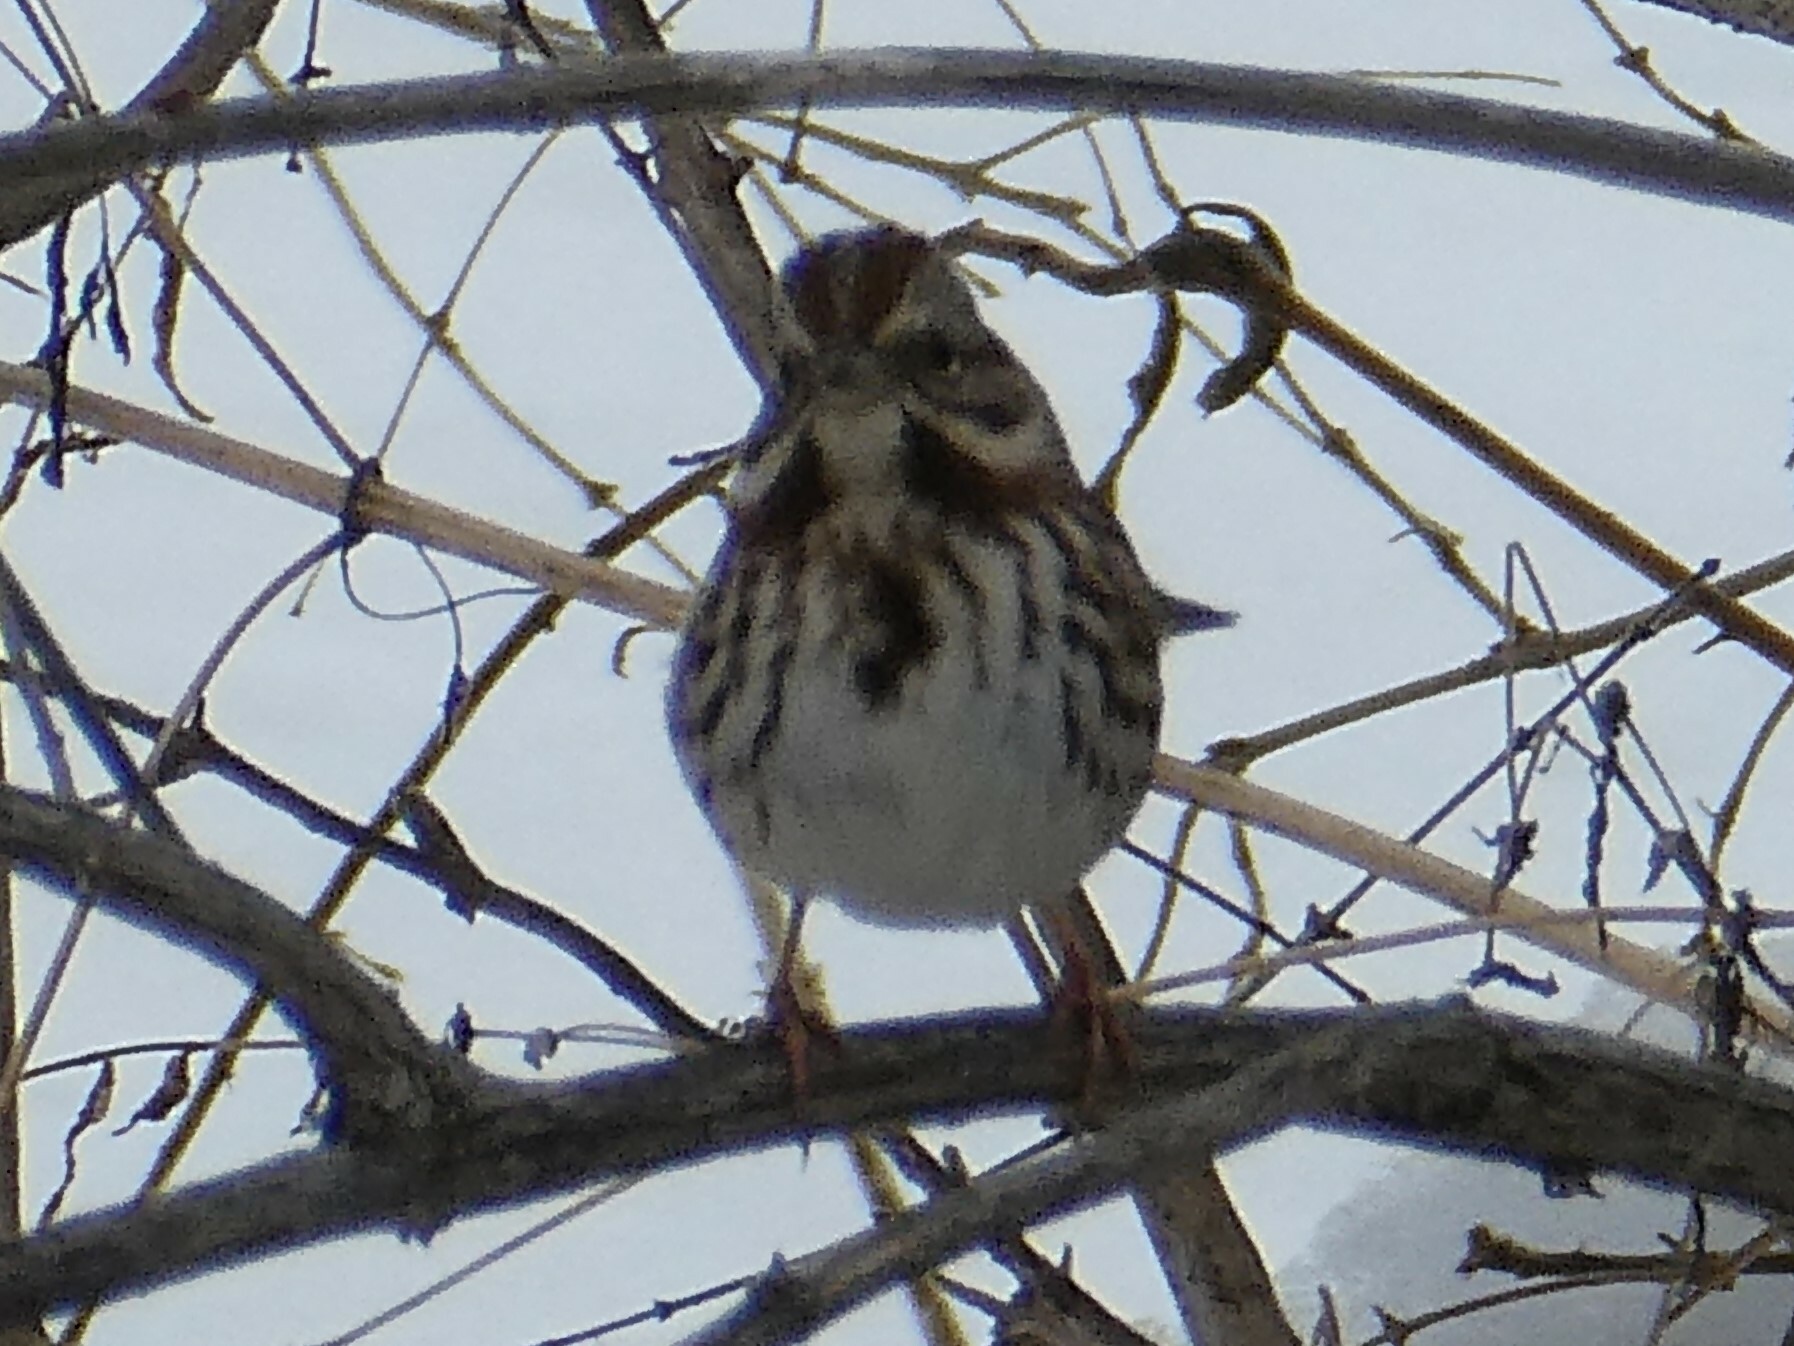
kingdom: Animalia
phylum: Chordata
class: Aves
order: Passeriformes
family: Passerellidae
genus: Melospiza
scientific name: Melospiza melodia
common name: Song sparrow
